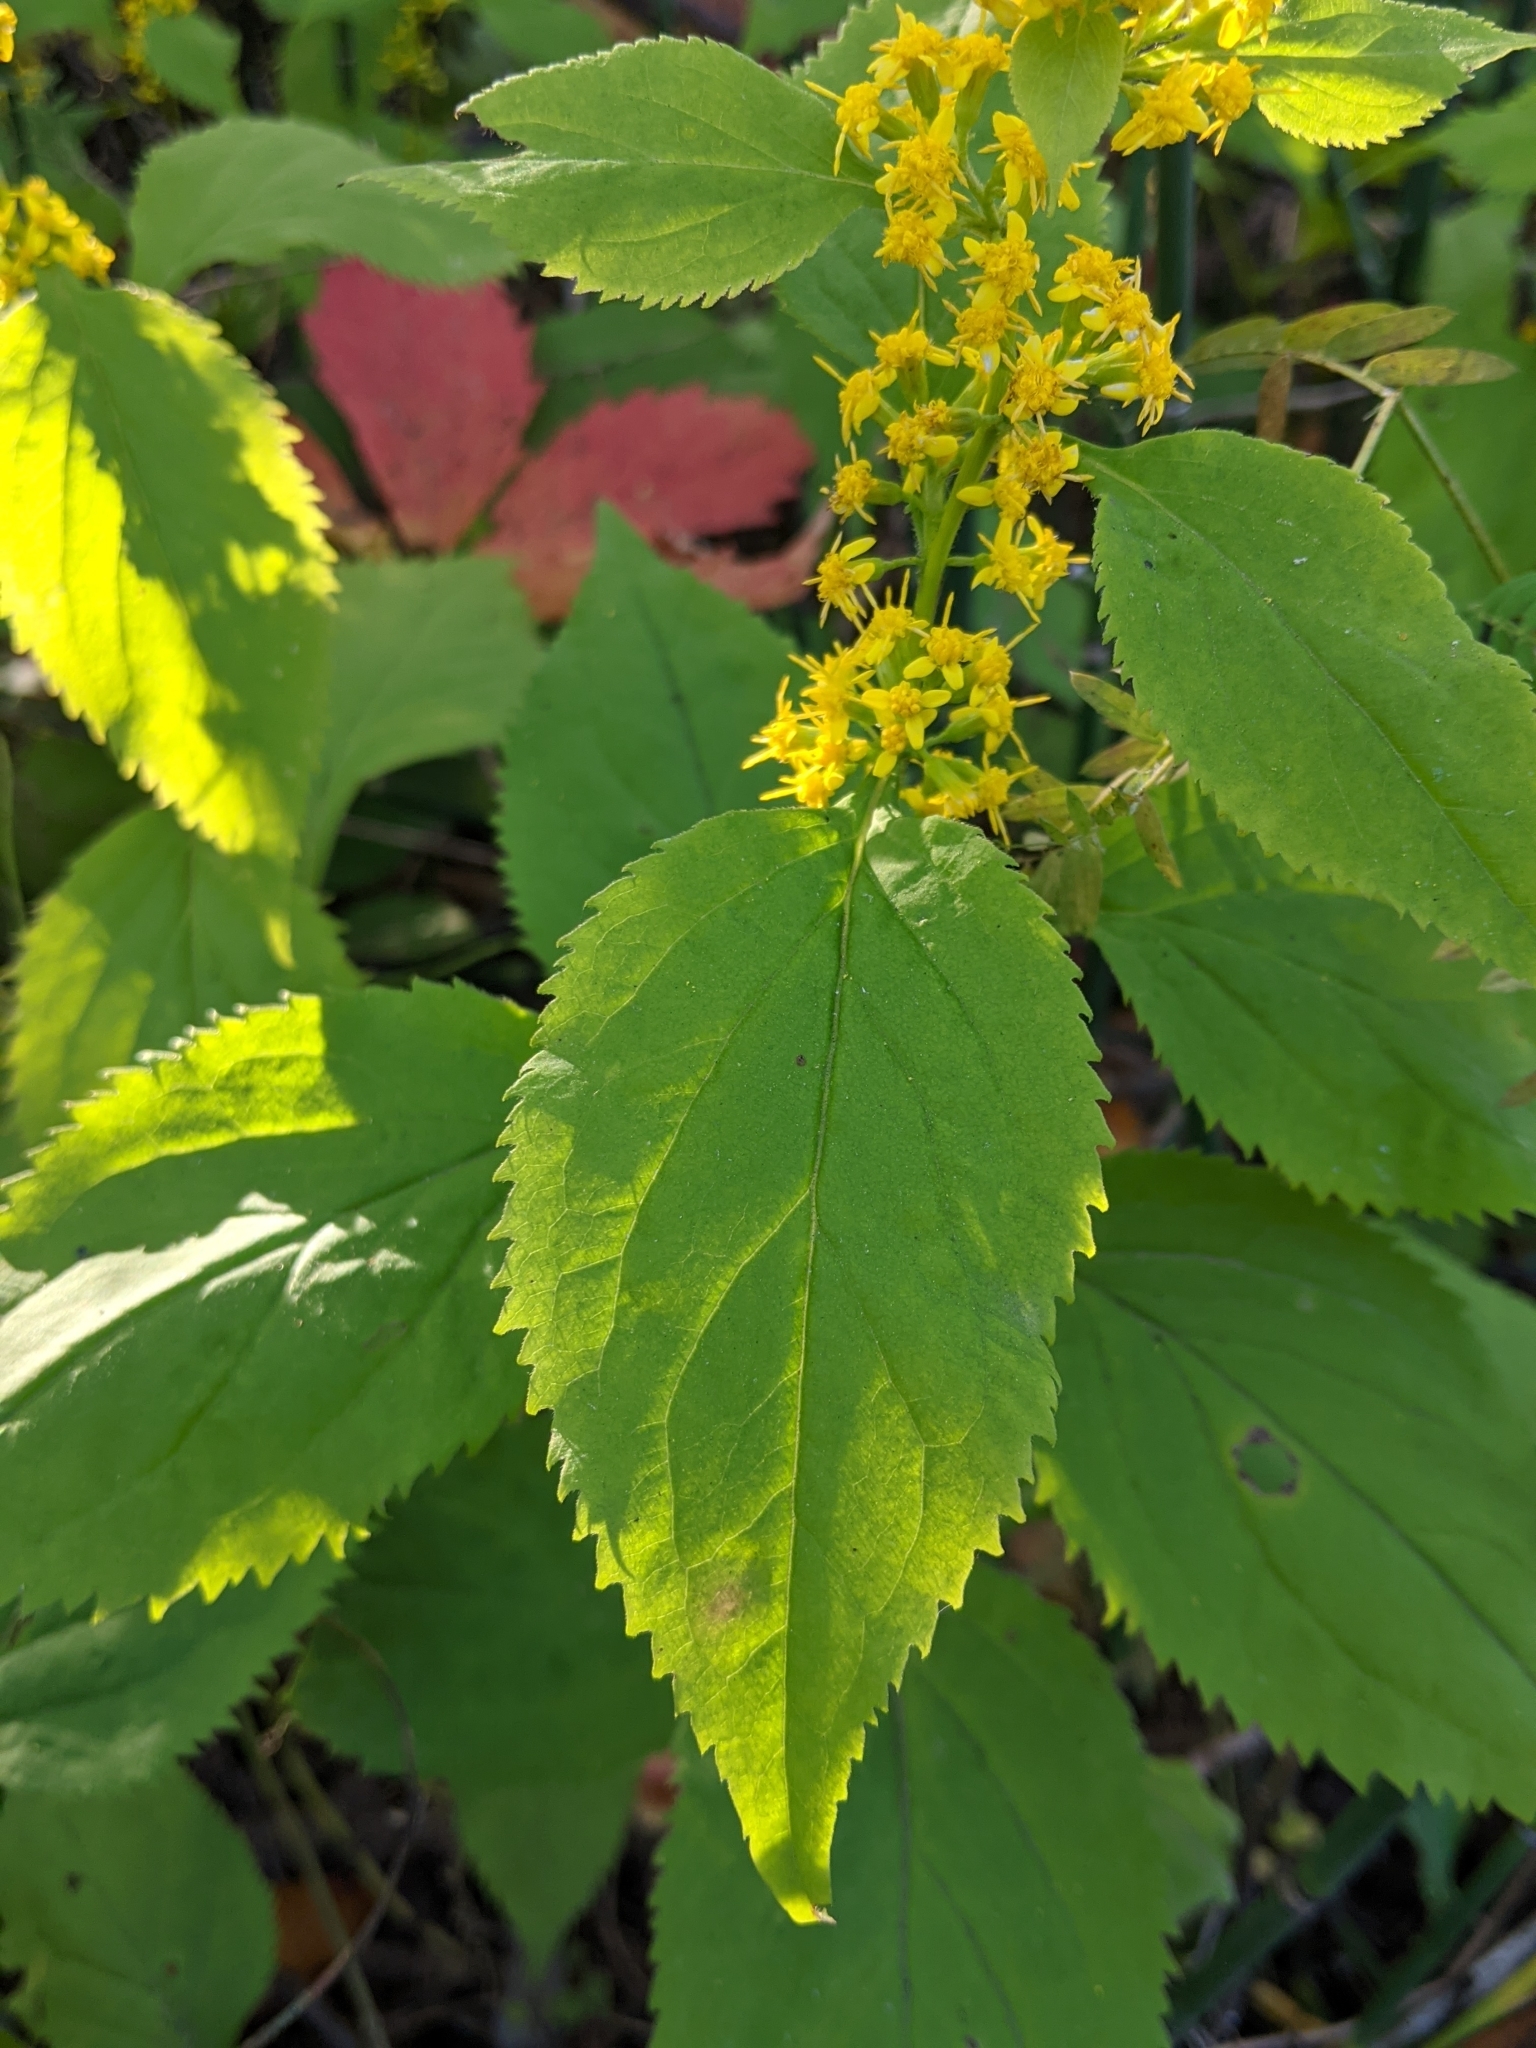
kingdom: Plantae
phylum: Tracheophyta
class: Magnoliopsida
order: Asterales
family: Asteraceae
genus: Solidago
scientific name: Solidago flexicaulis
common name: Zig-zag goldenrod
